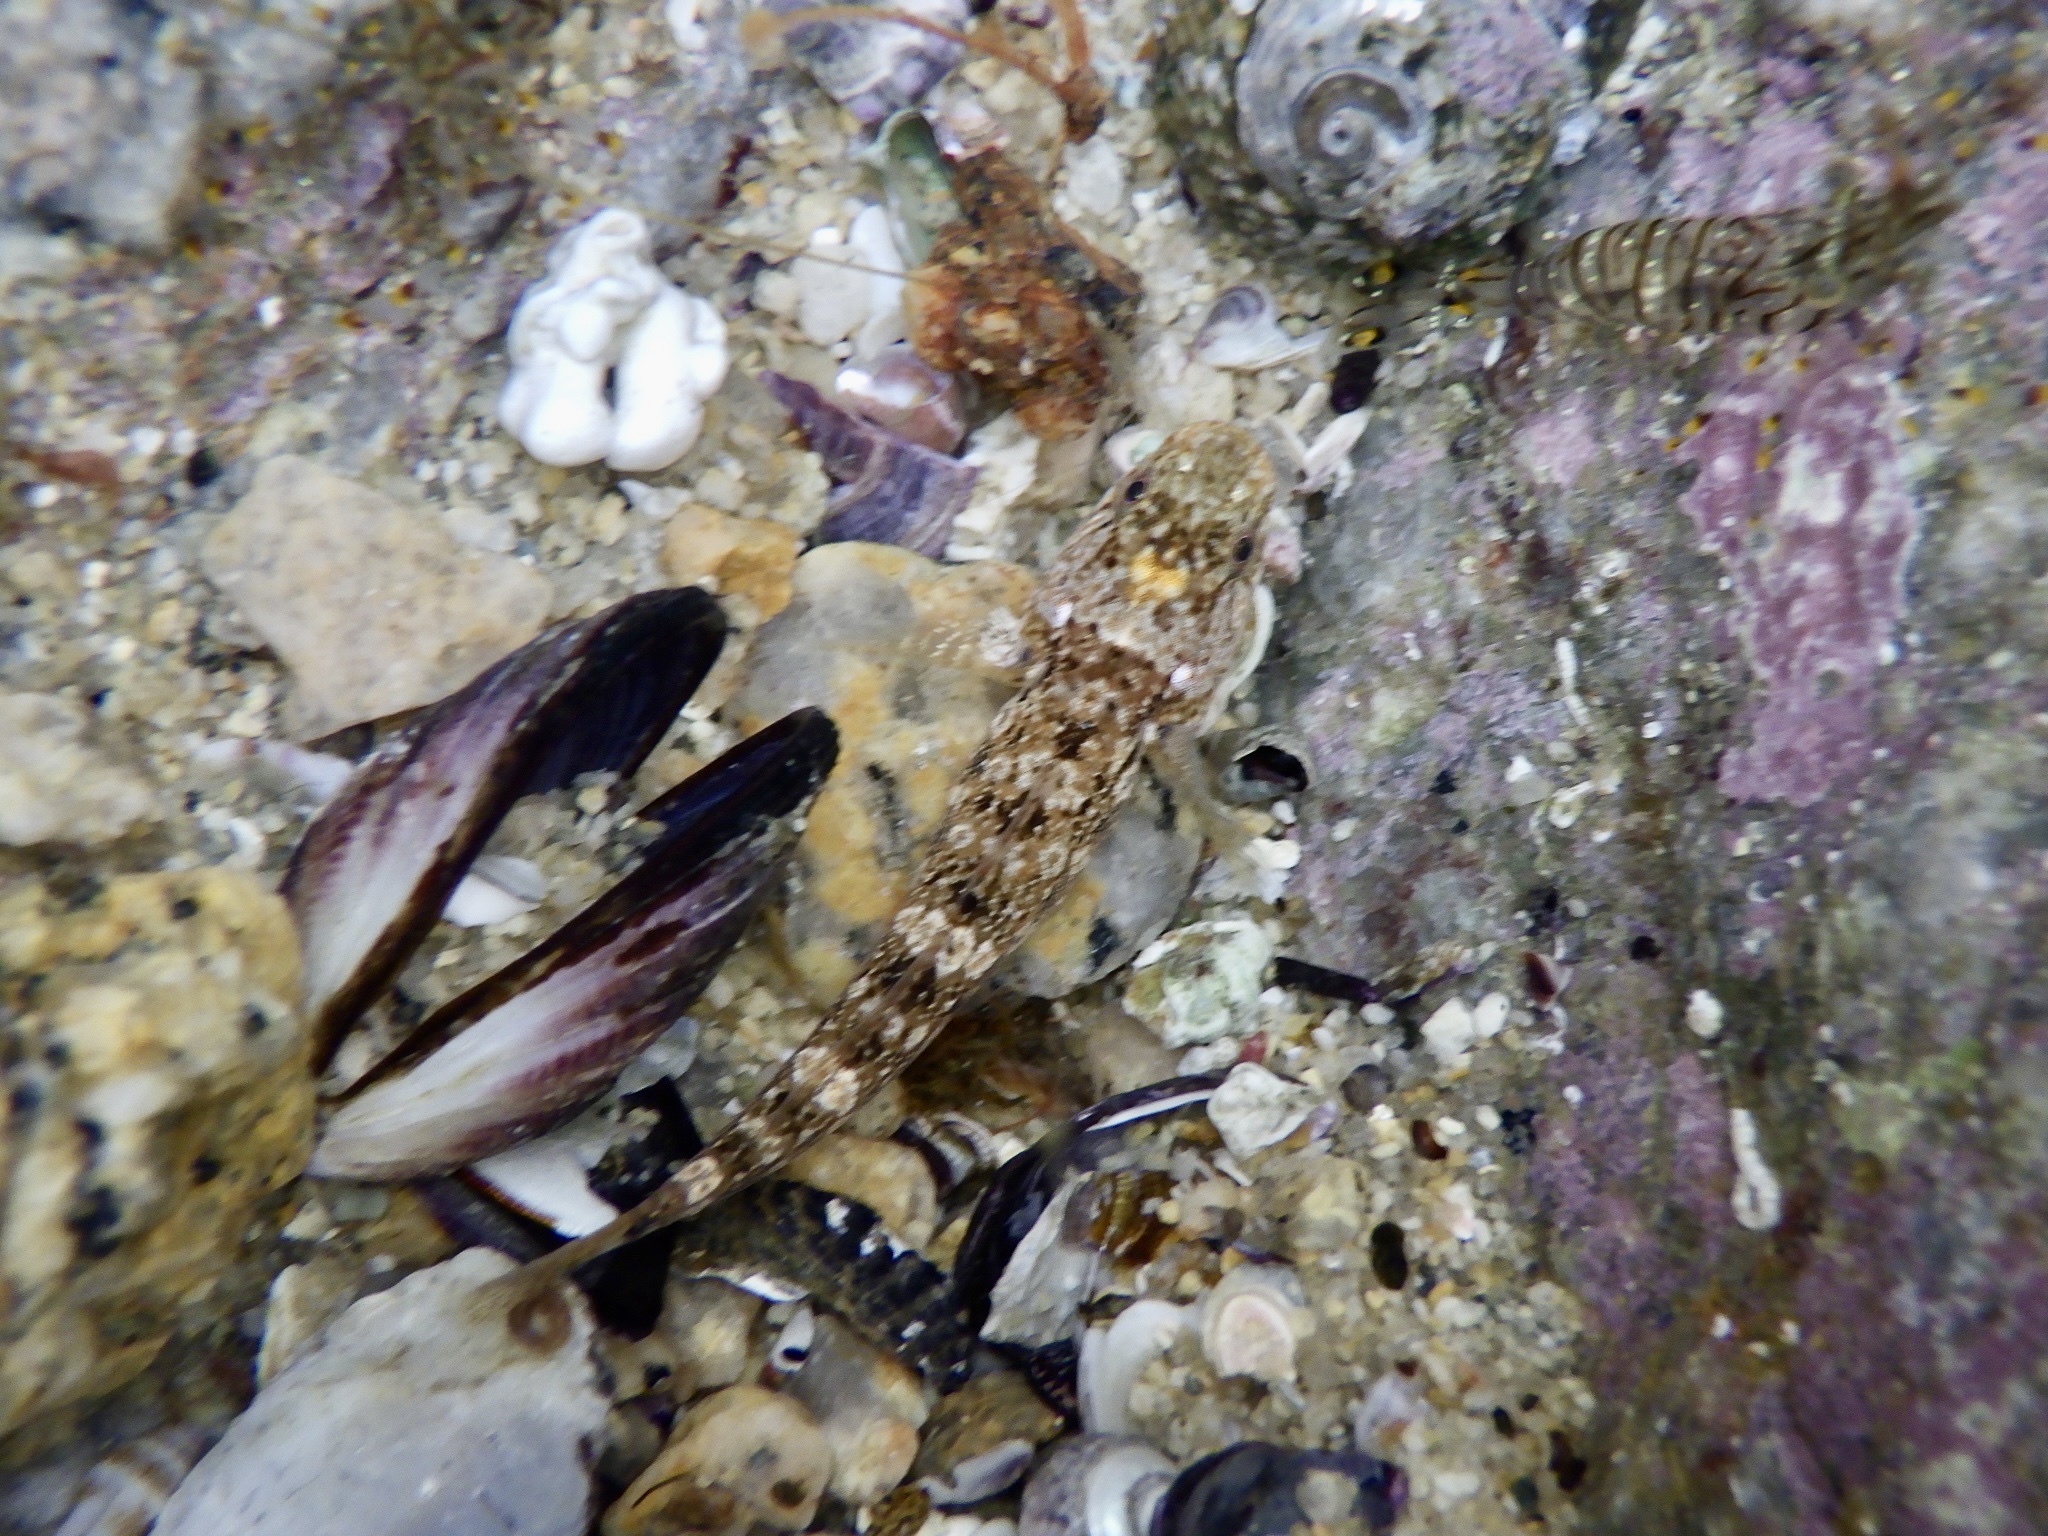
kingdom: Animalia
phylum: Chordata
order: Perciformes
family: Gobiidae
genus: Chaenogobius
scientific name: Chaenogobius annularis
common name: Forktongue goby
